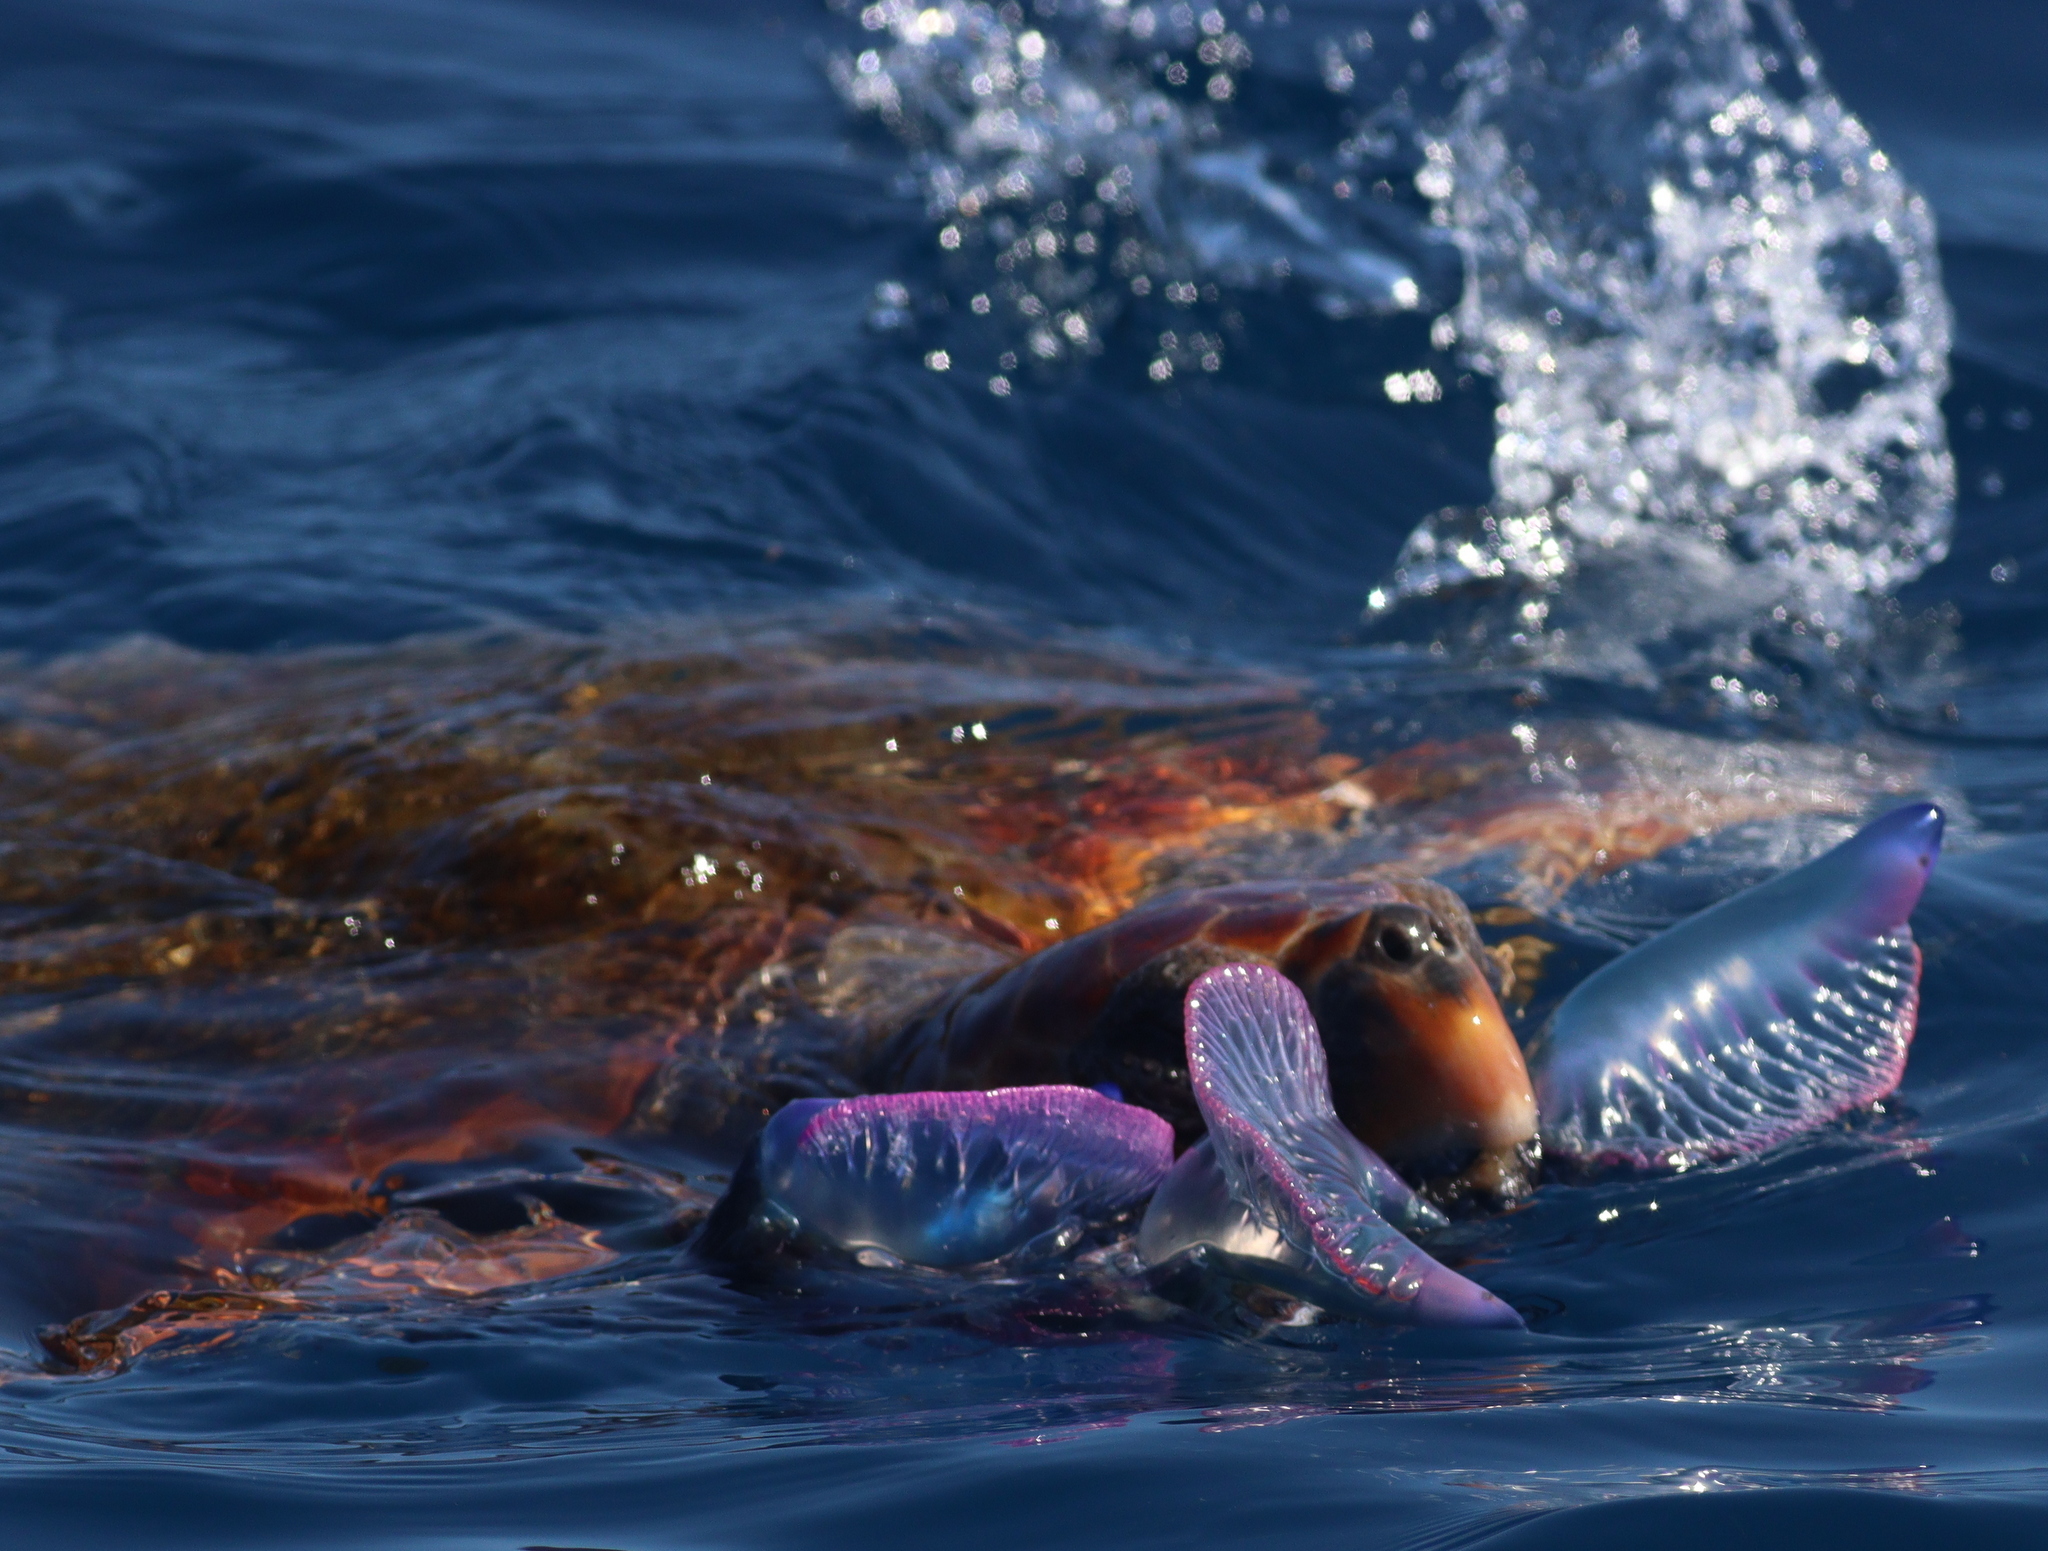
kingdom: Animalia
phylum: Chordata
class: Testudines
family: Cheloniidae
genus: Caretta
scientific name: Caretta caretta
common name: Loggerhead sea turtle
